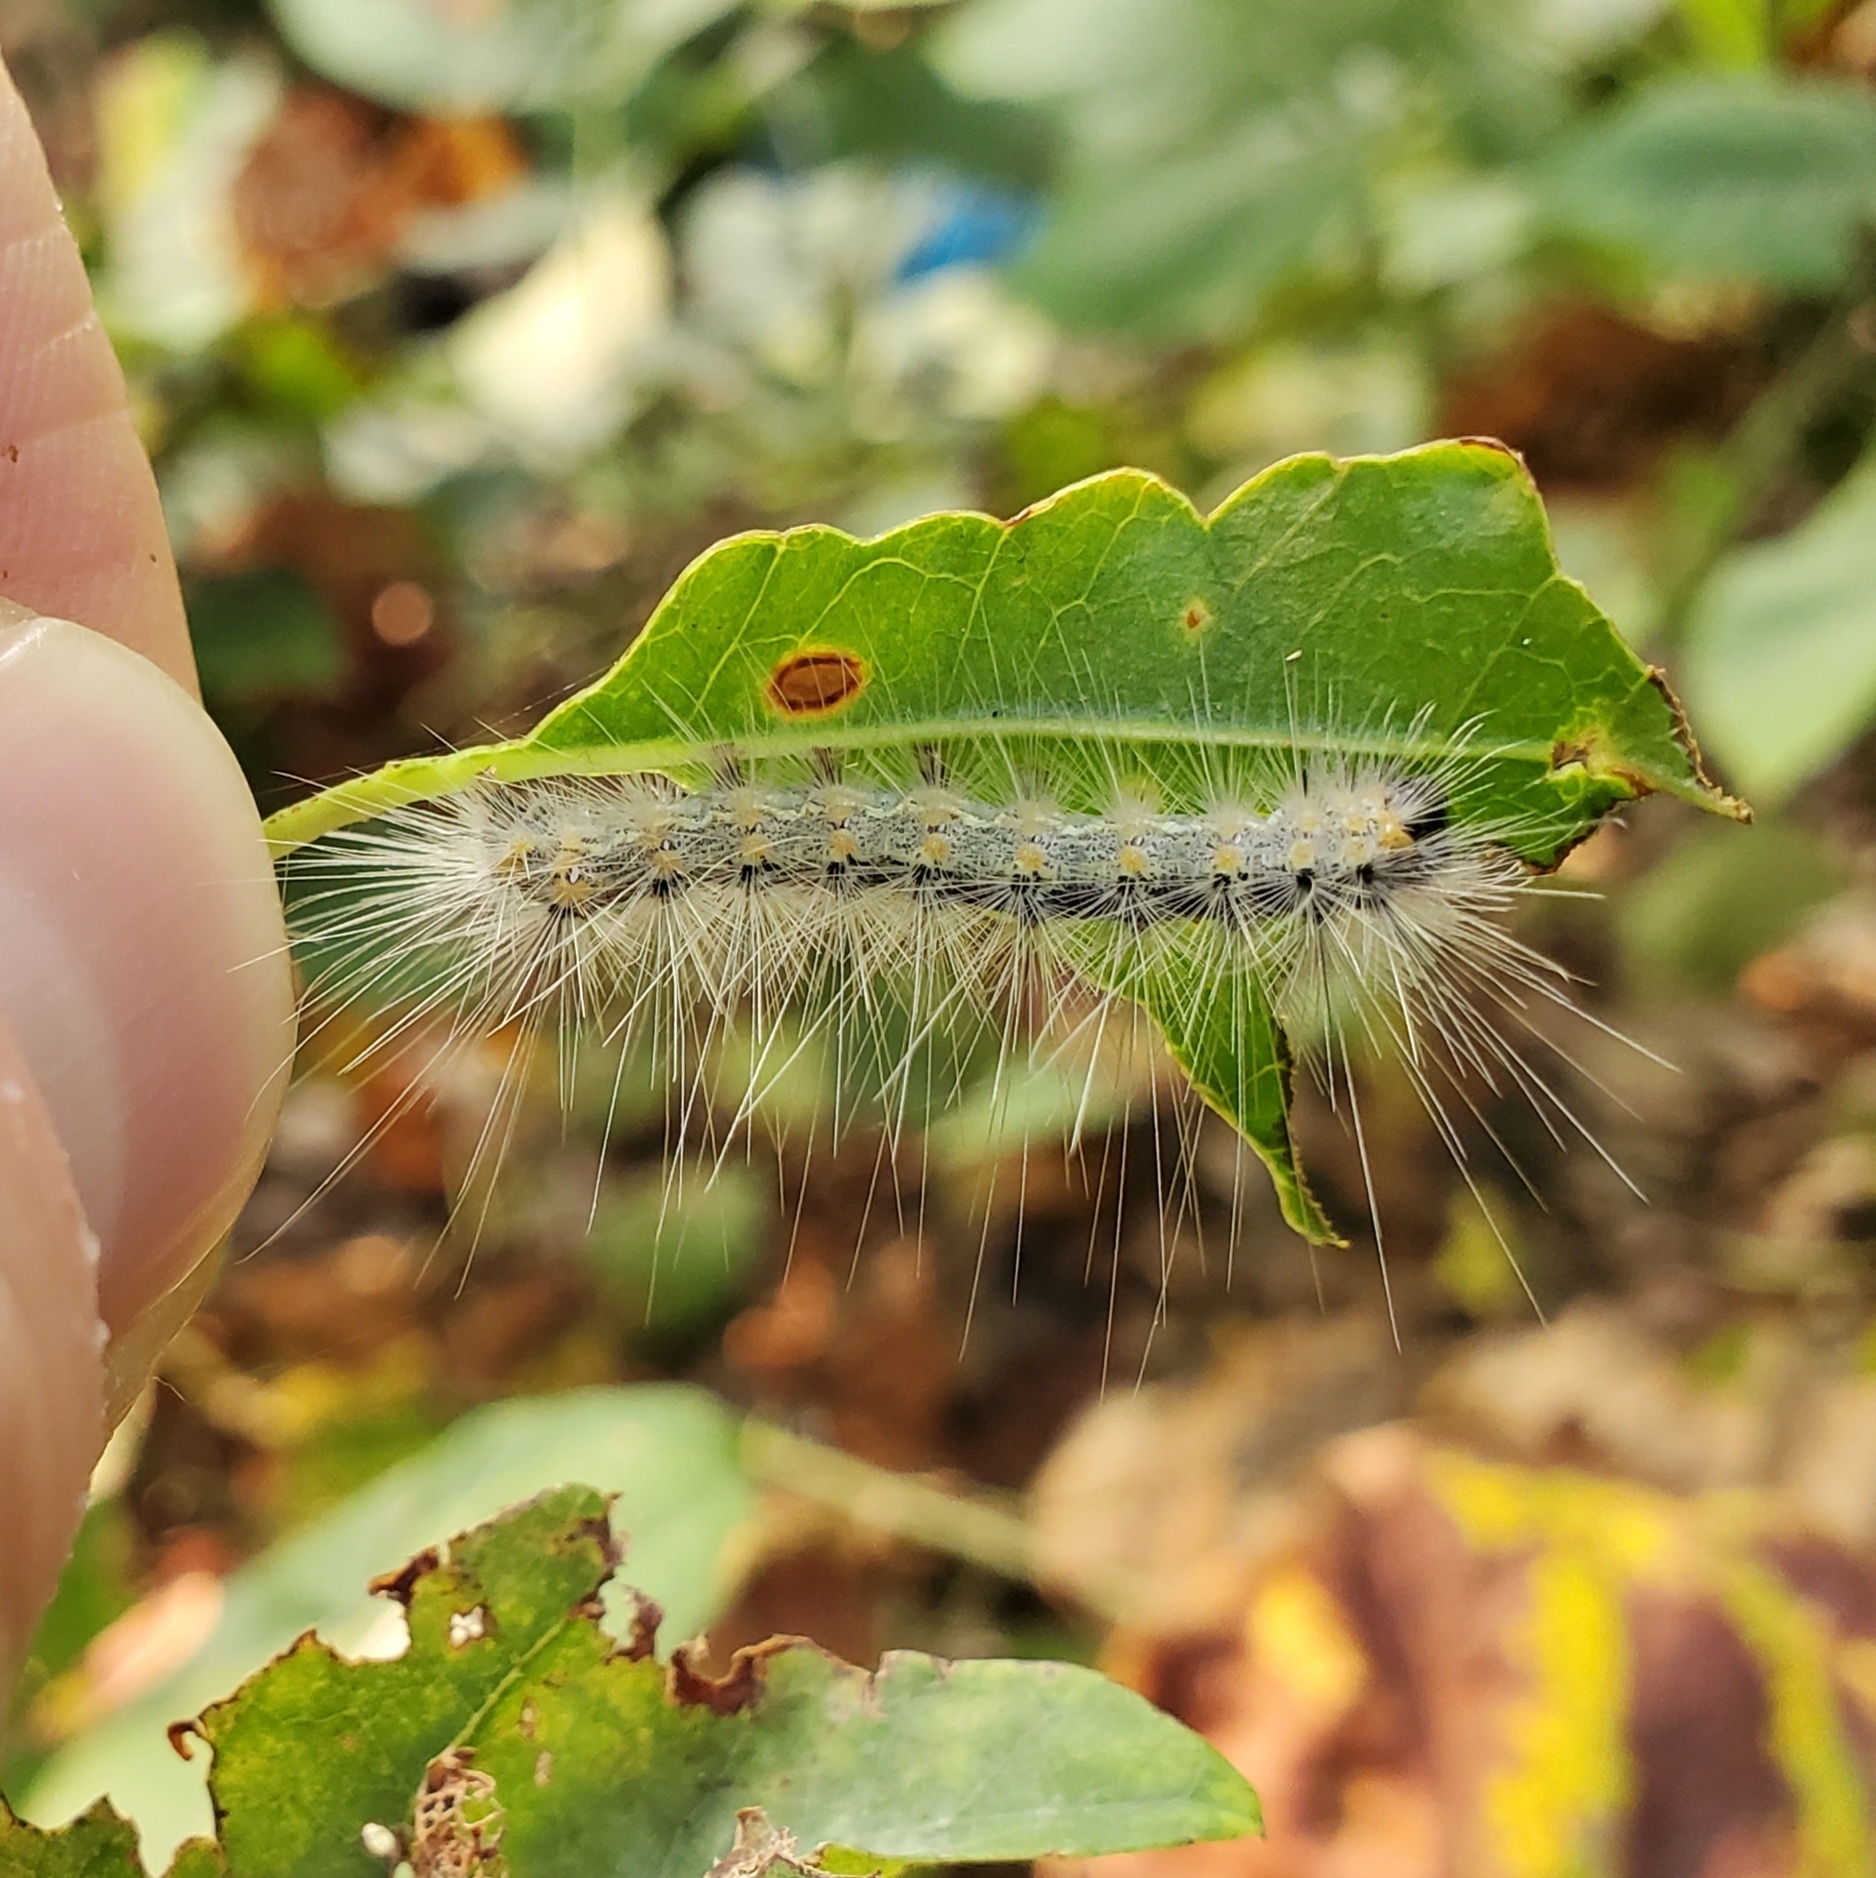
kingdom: Animalia
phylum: Arthropoda
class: Insecta
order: Lepidoptera
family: Erebidae
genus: Hyphantria
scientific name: Hyphantria cunea
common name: American white moth
